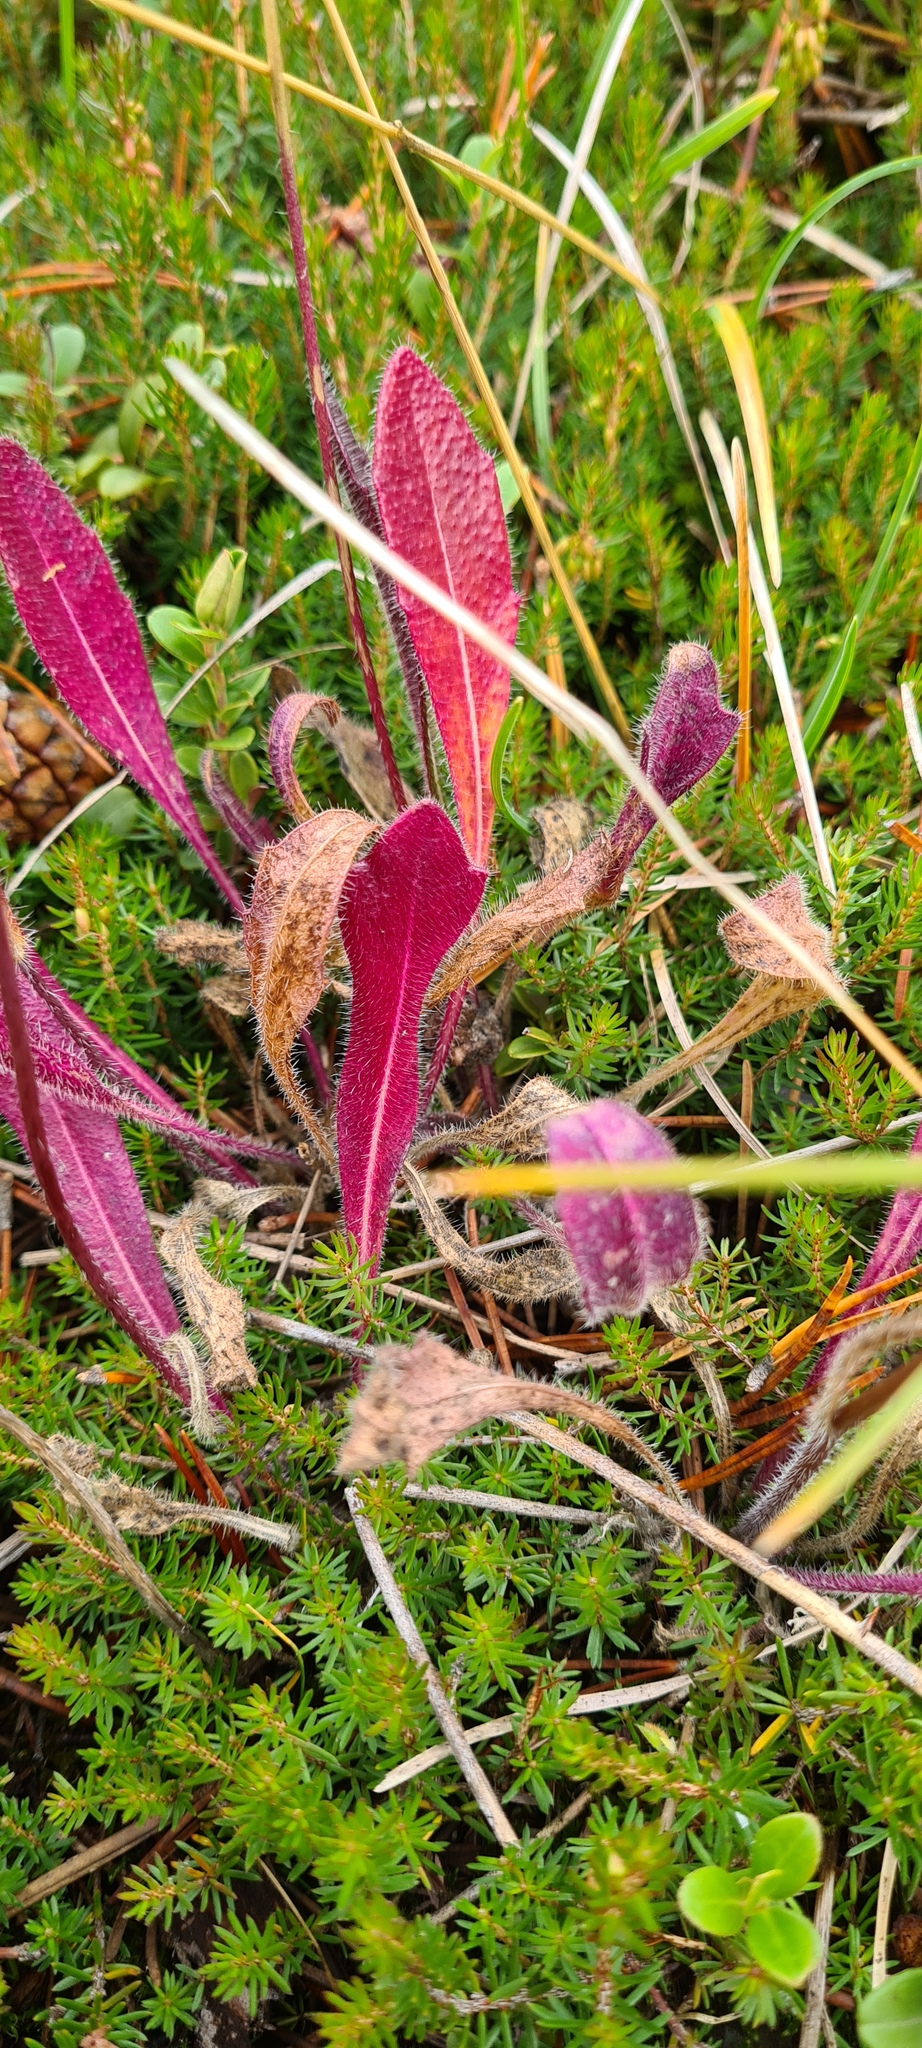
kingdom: Plantae
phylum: Tracheophyta
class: Magnoliopsida
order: Brassicales
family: Brassicaceae
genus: Biscutella
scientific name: Biscutella laevigata
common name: Buckler mustard
